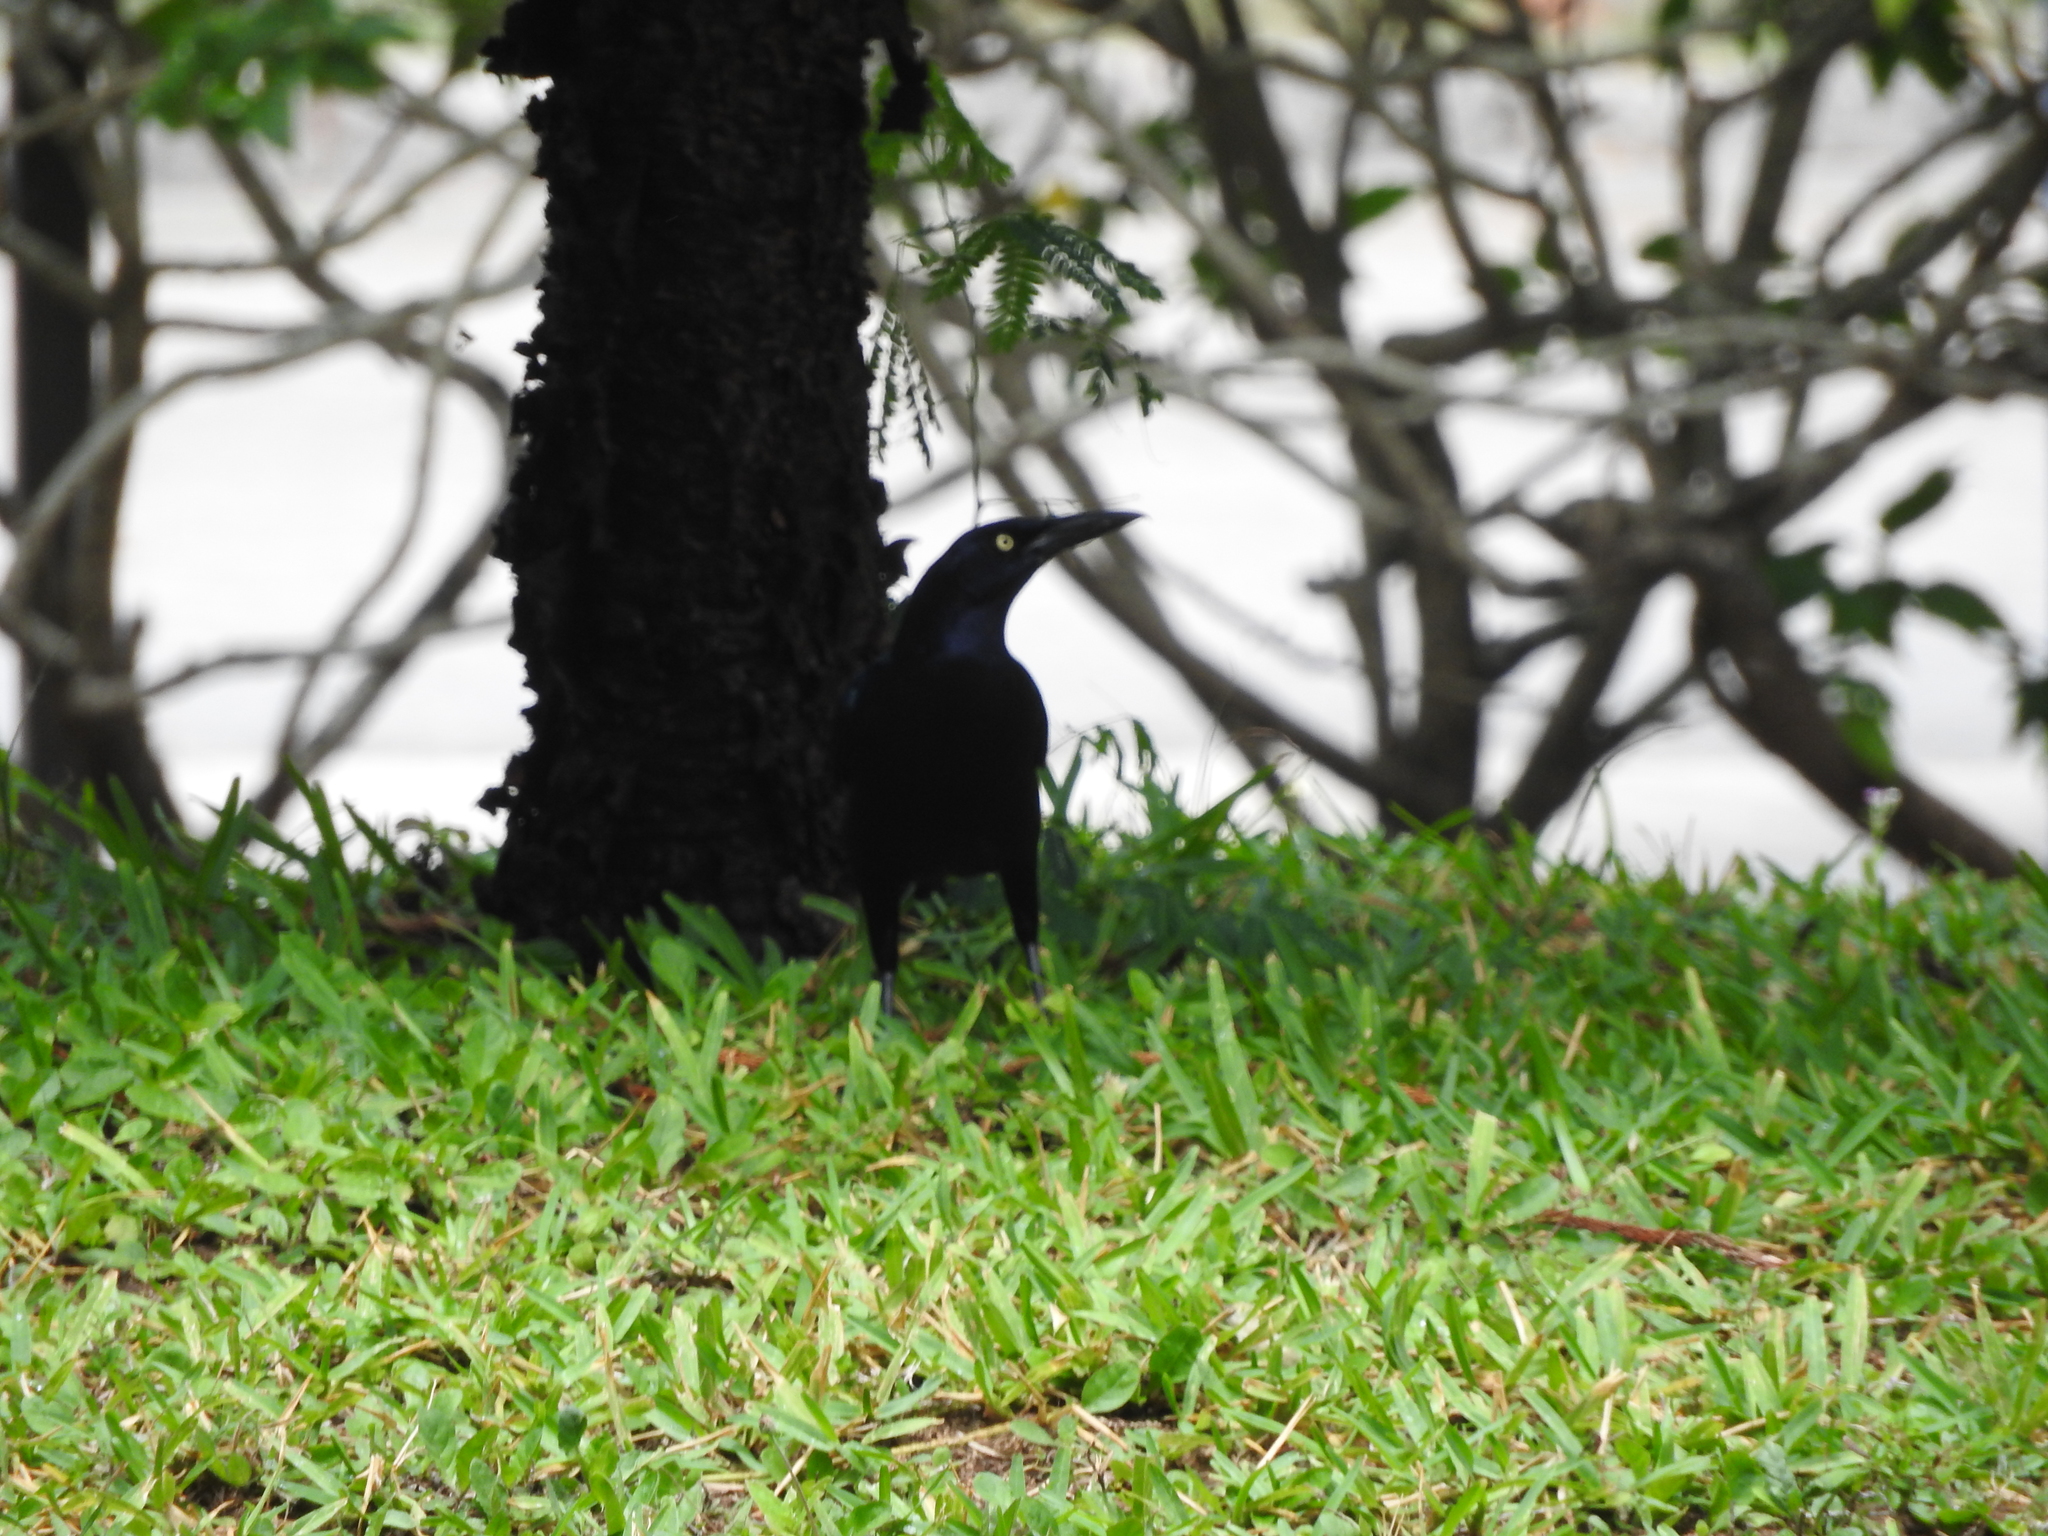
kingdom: Animalia
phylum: Chordata
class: Aves
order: Passeriformes
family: Icteridae
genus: Quiscalus
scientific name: Quiscalus mexicanus
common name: Great-tailed grackle
